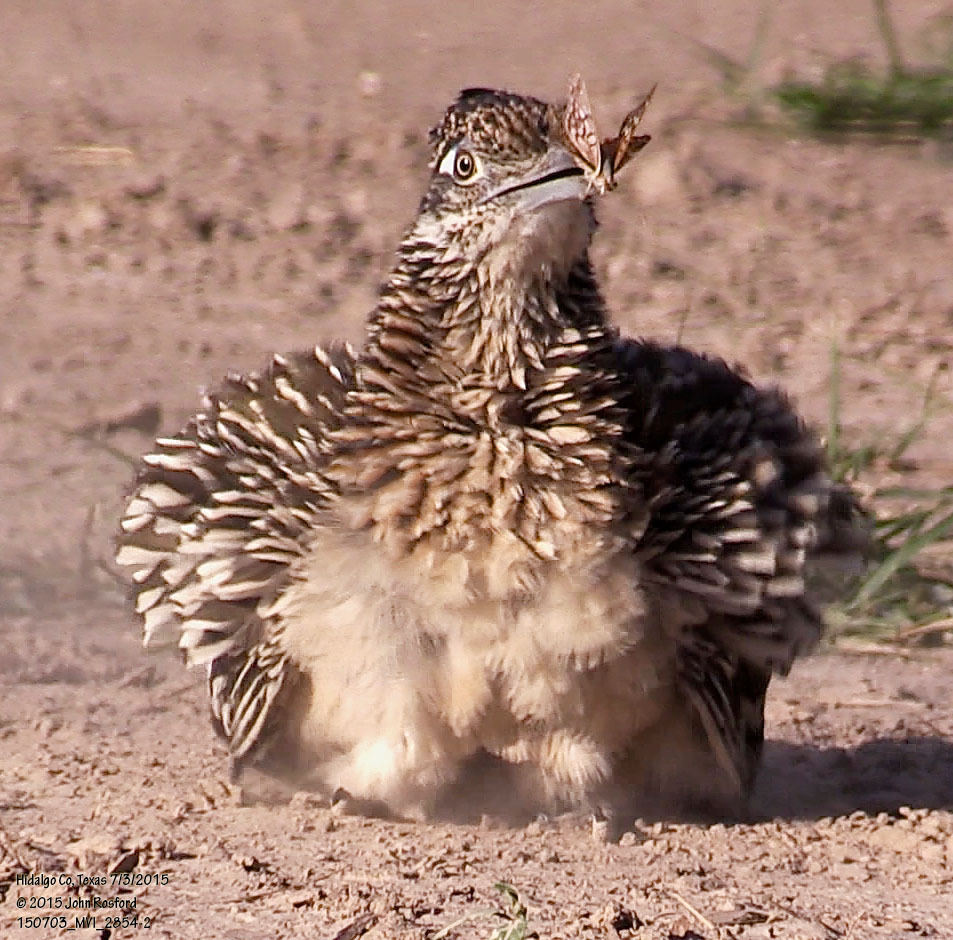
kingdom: Animalia
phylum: Chordata
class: Aves
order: Cuculiformes
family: Cuculidae
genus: Geococcyx
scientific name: Geococcyx californianus
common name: Greater roadrunner
